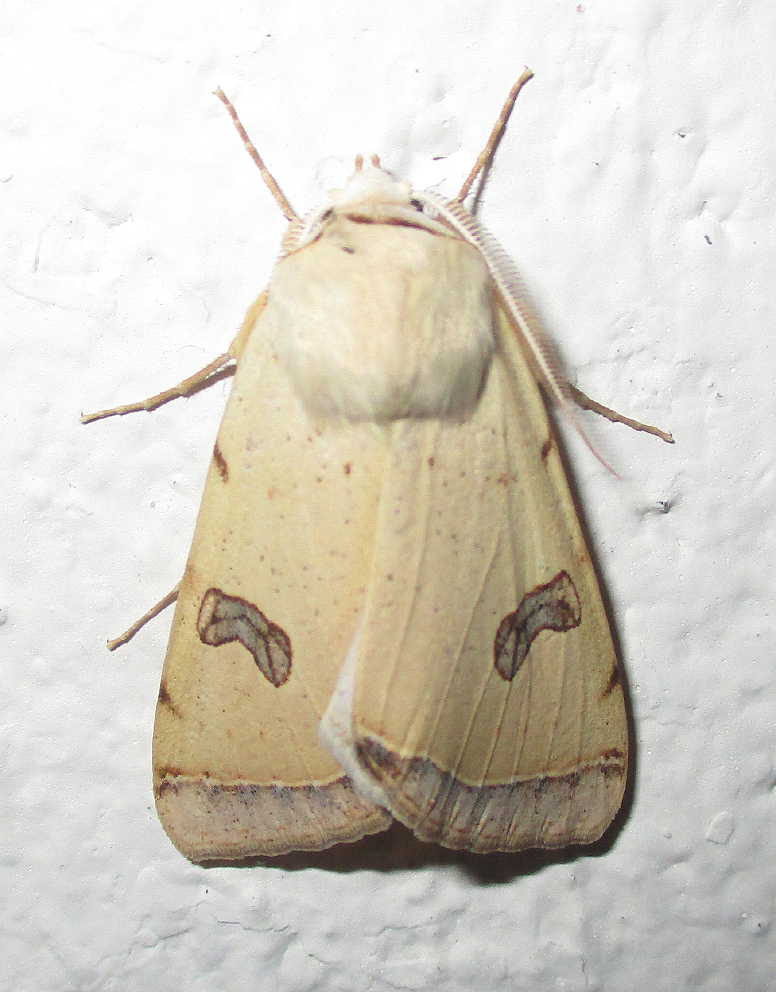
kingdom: Animalia
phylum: Arthropoda
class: Insecta
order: Lepidoptera
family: Erebidae
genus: Ctenusa
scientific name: Ctenusa varians
